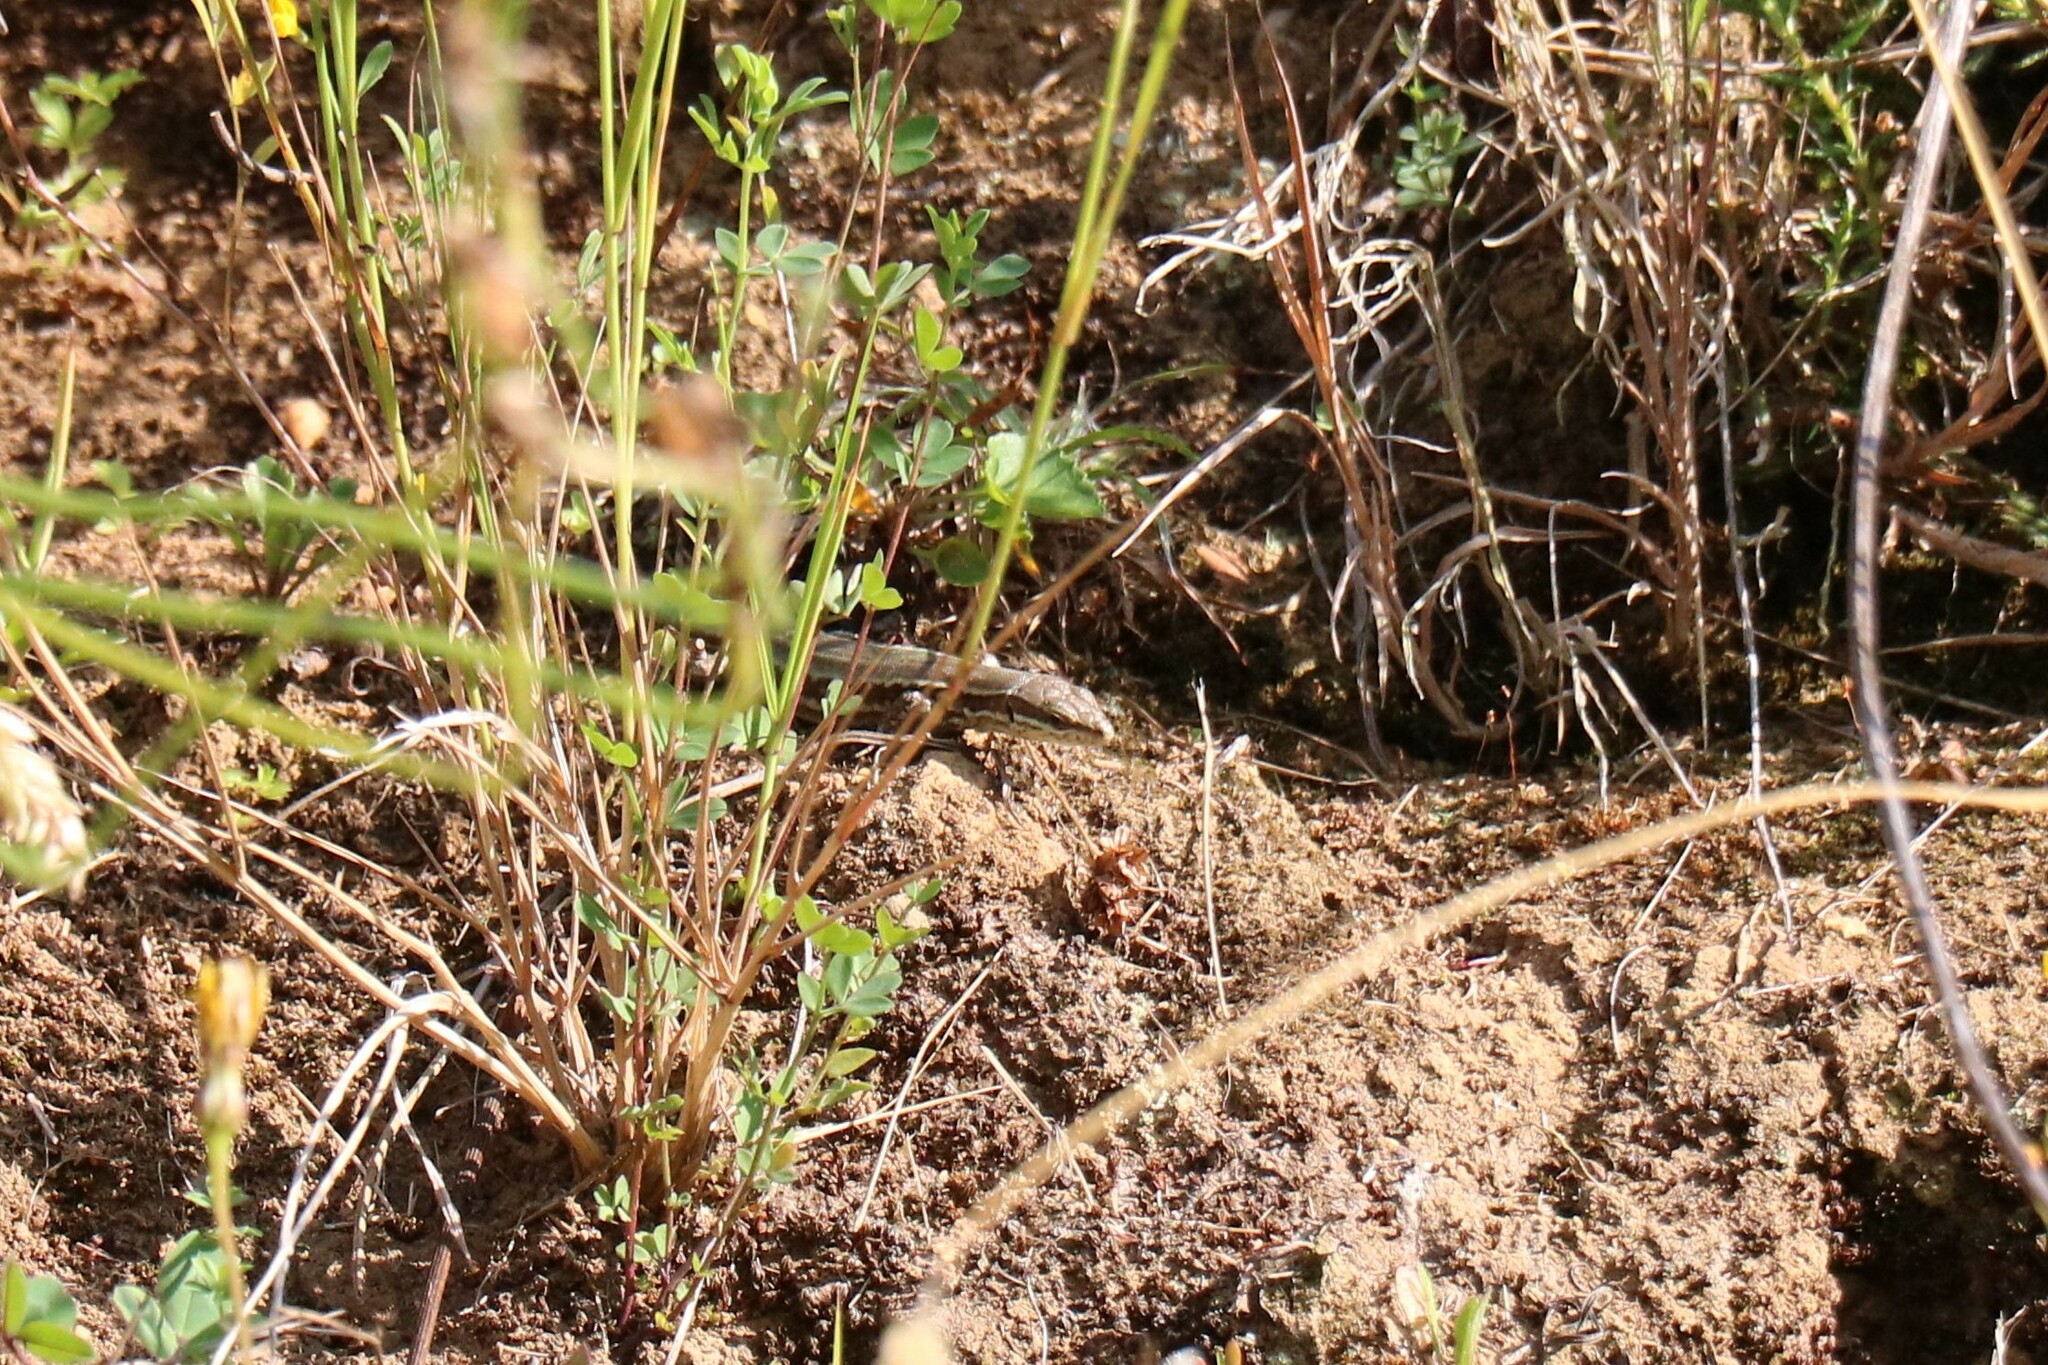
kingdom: Animalia
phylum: Chordata
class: Squamata
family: Lacertidae
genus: Podarcis
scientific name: Podarcis muralis
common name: Common wall lizard
